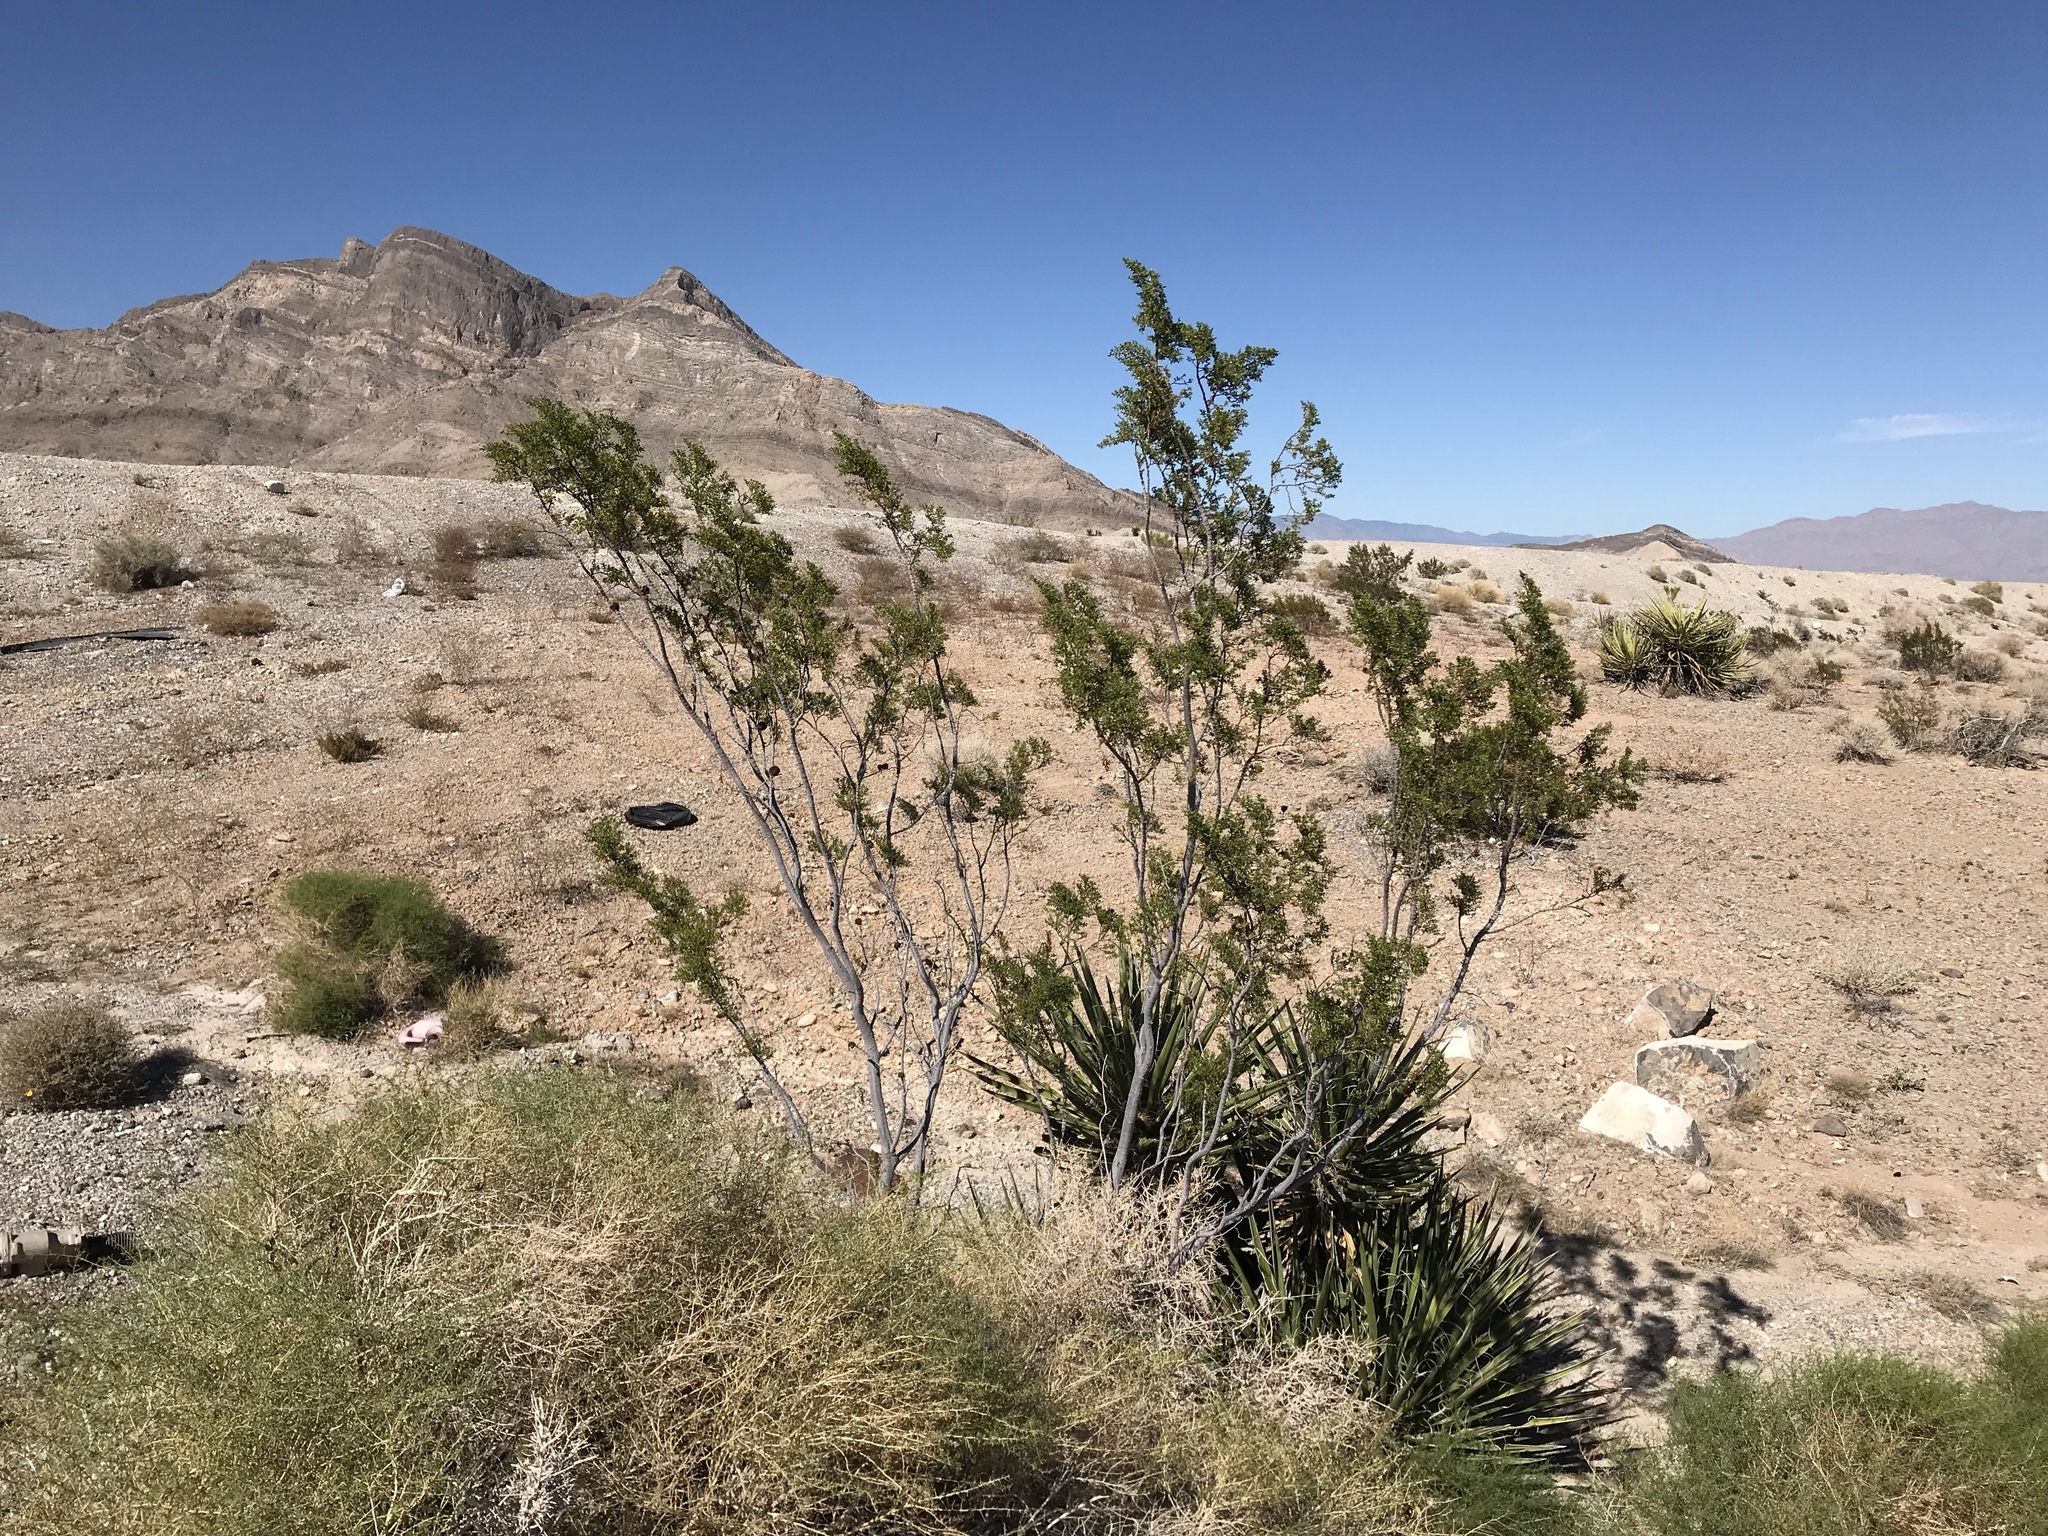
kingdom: Plantae
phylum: Tracheophyta
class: Magnoliopsida
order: Zygophyllales
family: Zygophyllaceae
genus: Larrea
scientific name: Larrea tridentata
